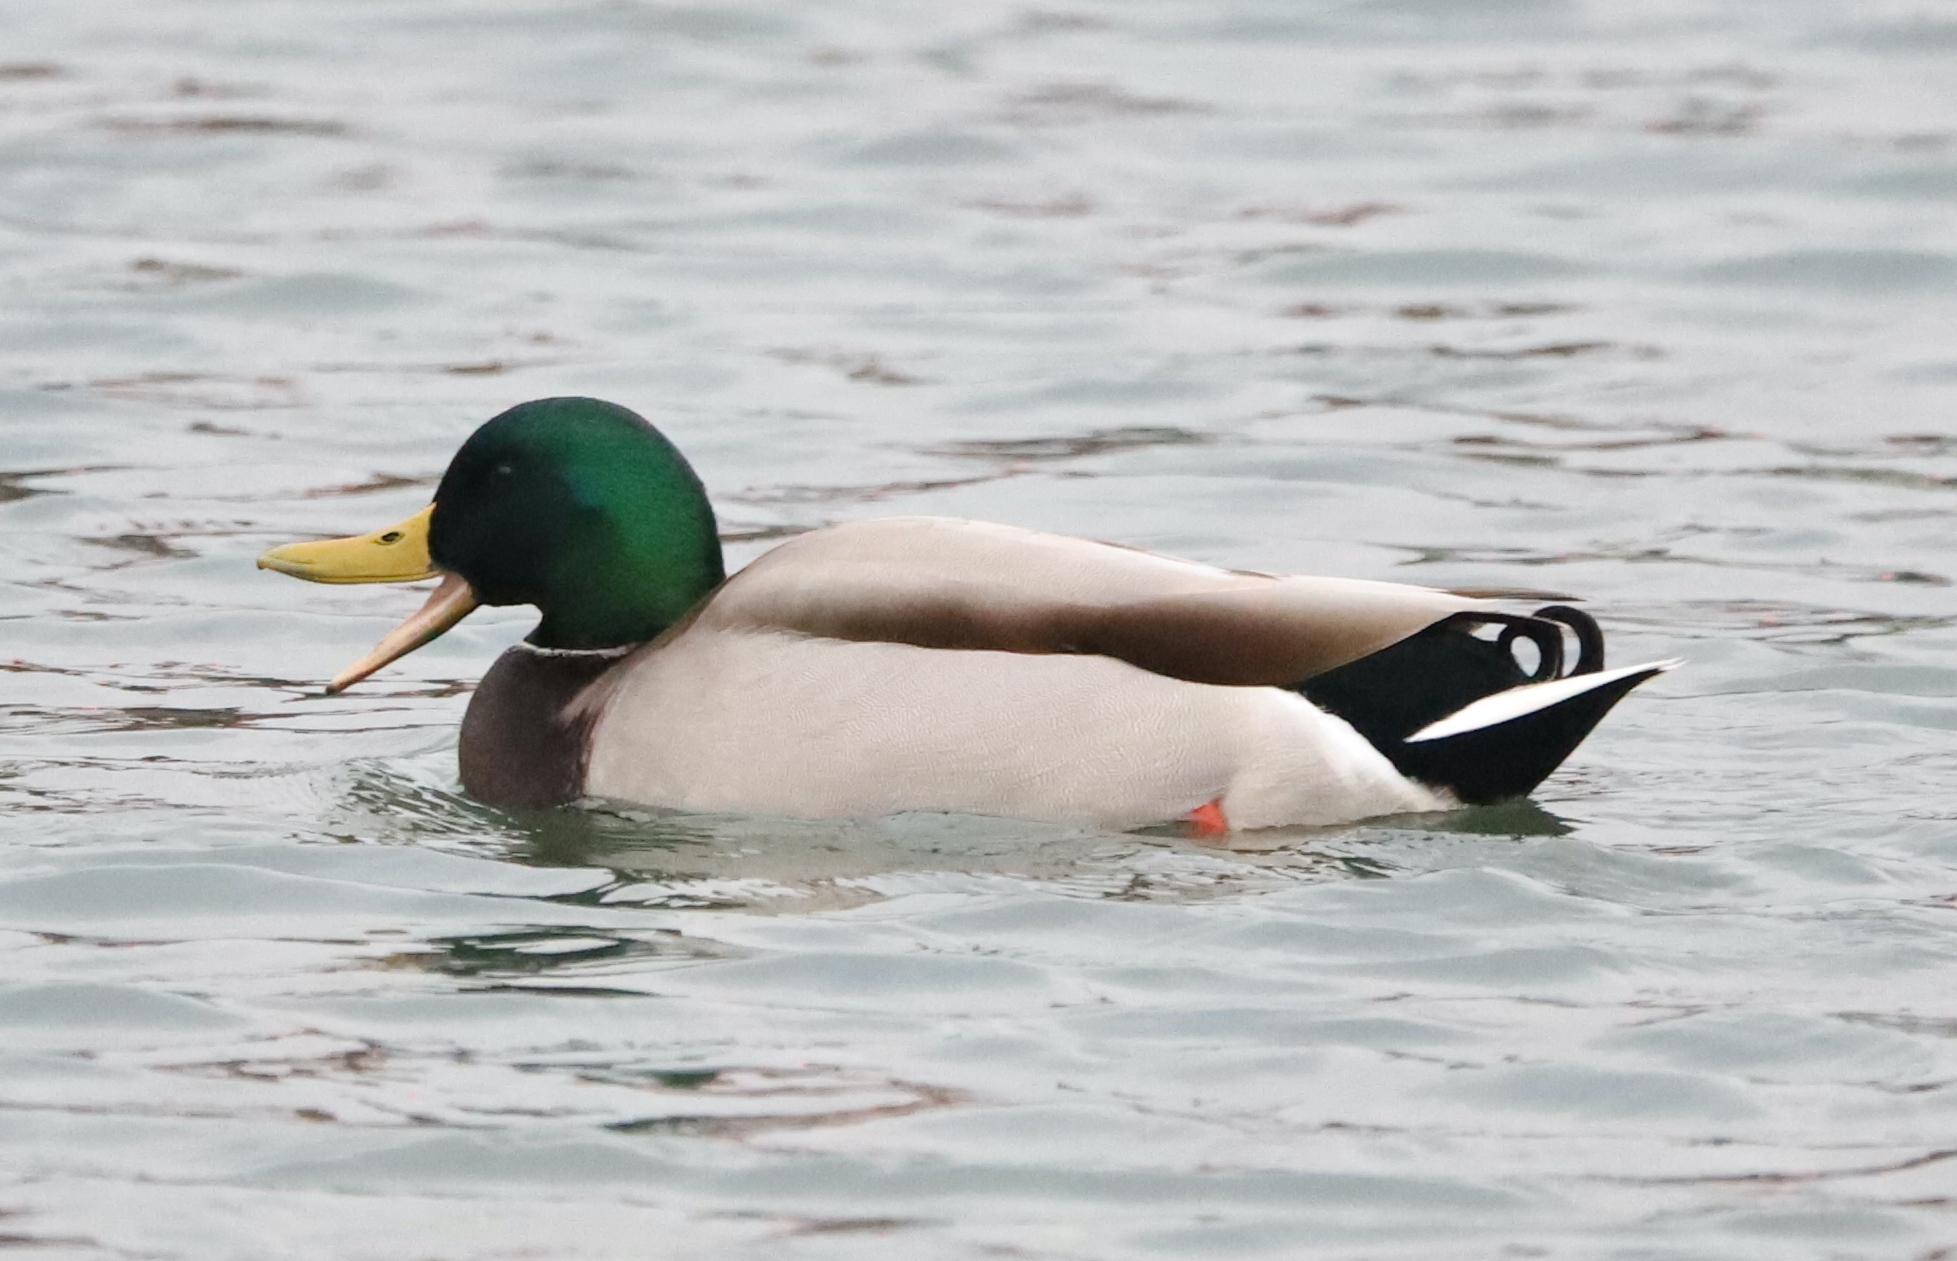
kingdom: Animalia
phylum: Chordata
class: Aves
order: Anseriformes
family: Anatidae
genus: Anas
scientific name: Anas platyrhynchos
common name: Mallard
